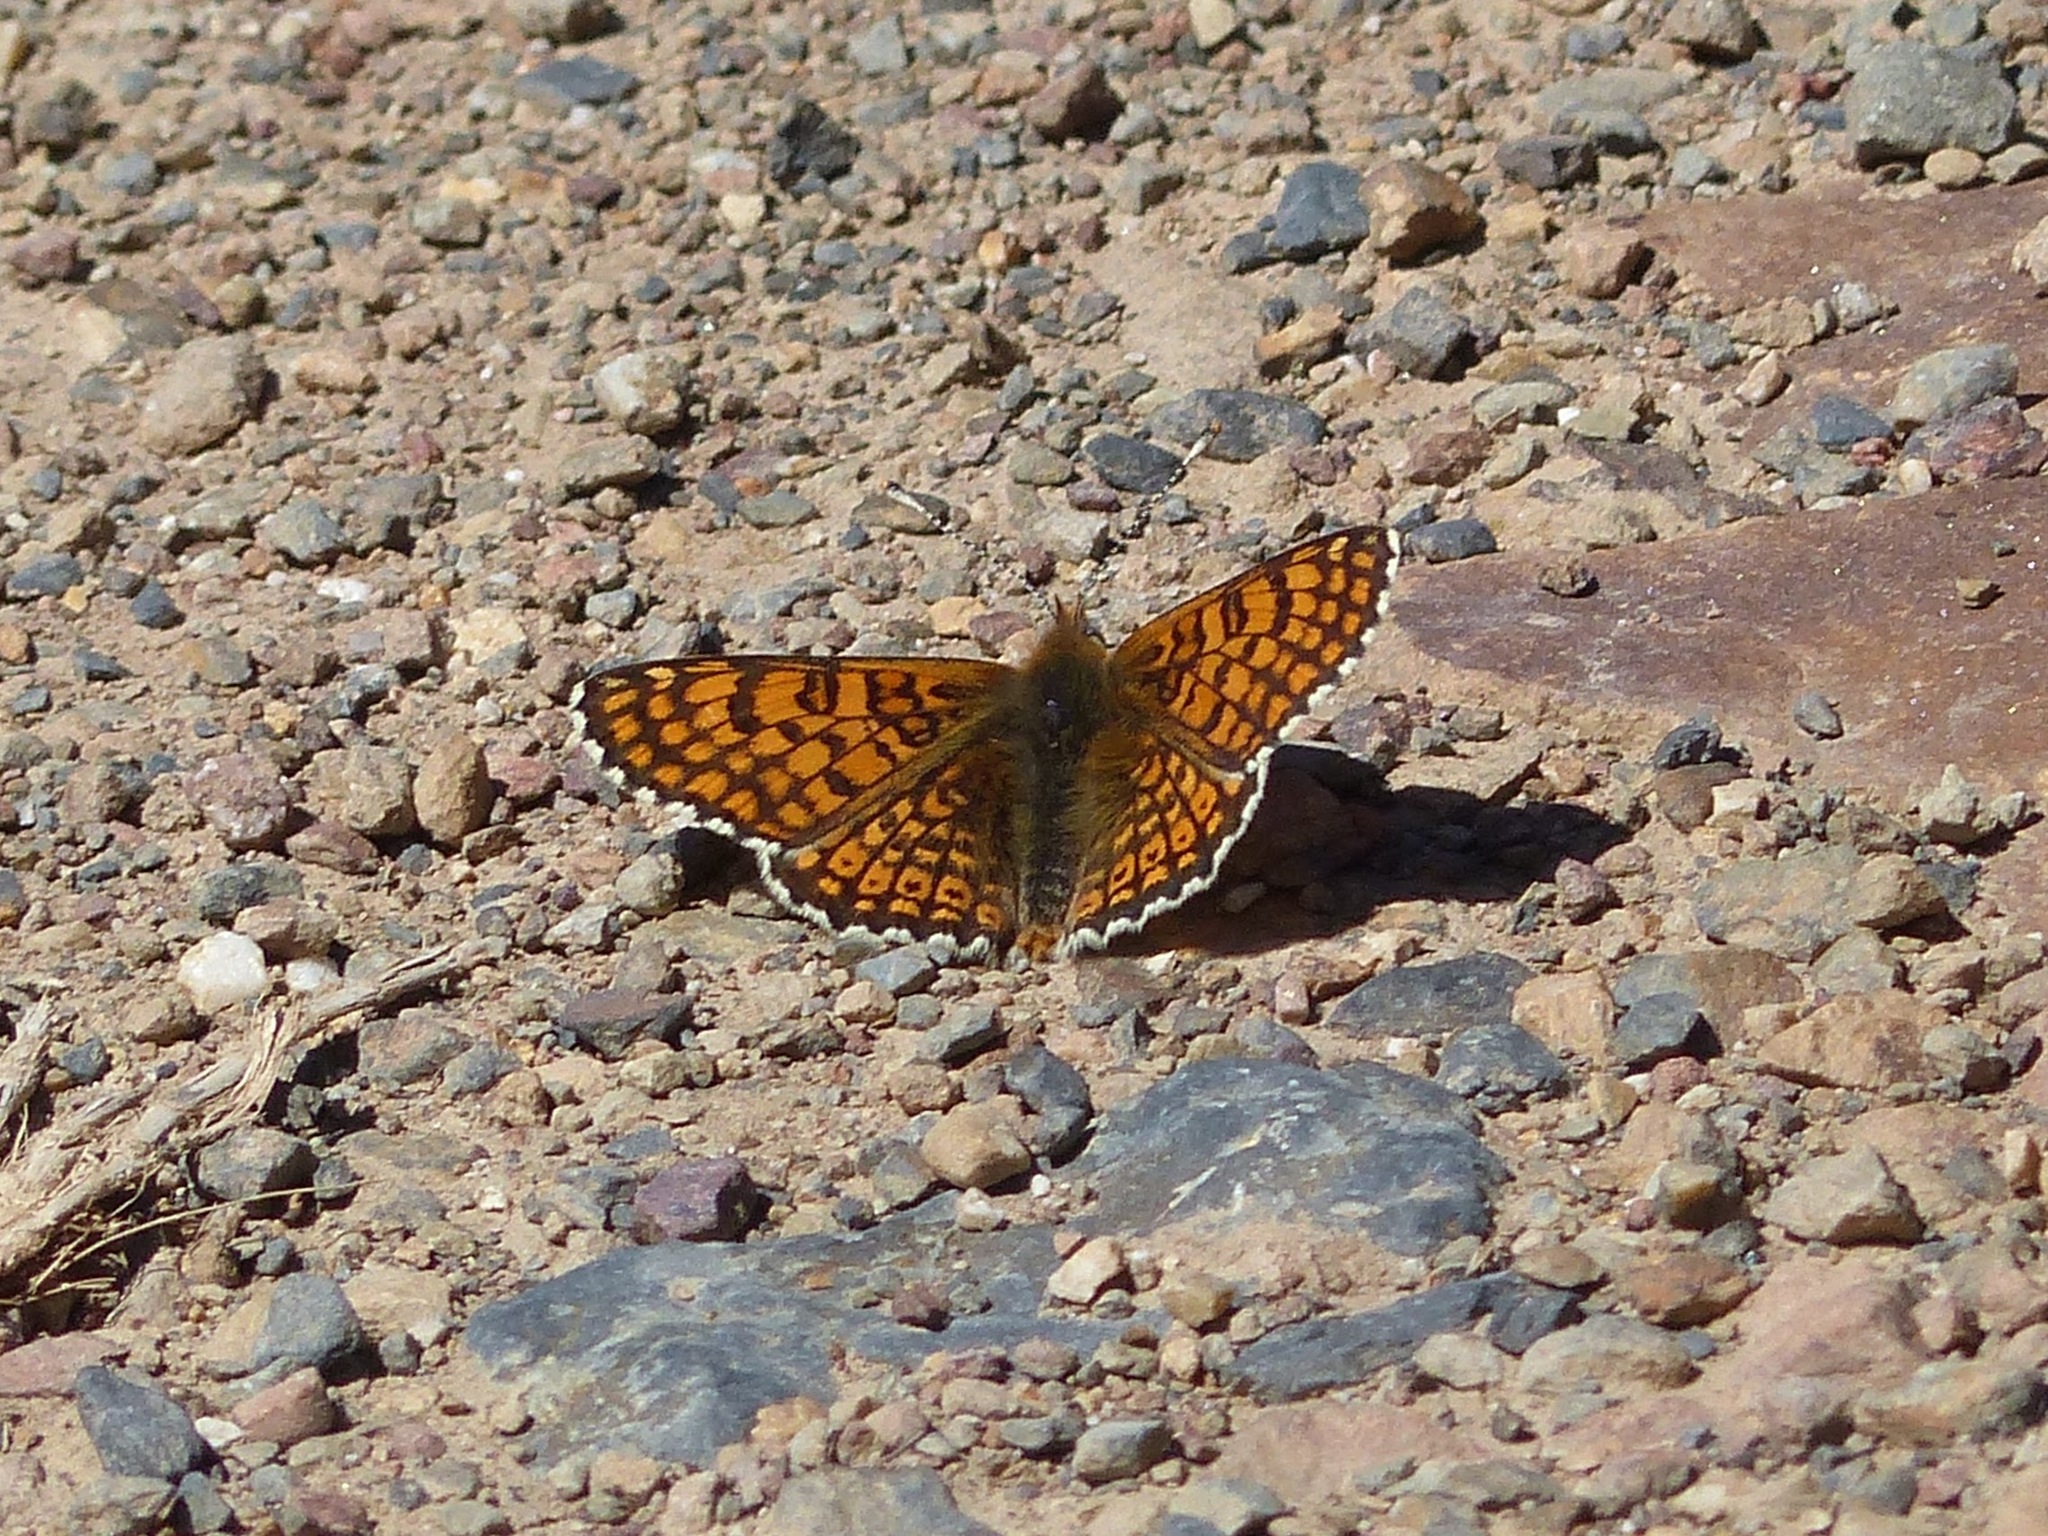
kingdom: Animalia
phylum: Arthropoda
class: Insecta
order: Lepidoptera
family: Nymphalidae
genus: Melitaea
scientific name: Melitaea cinxia
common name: Glanville fritillary
